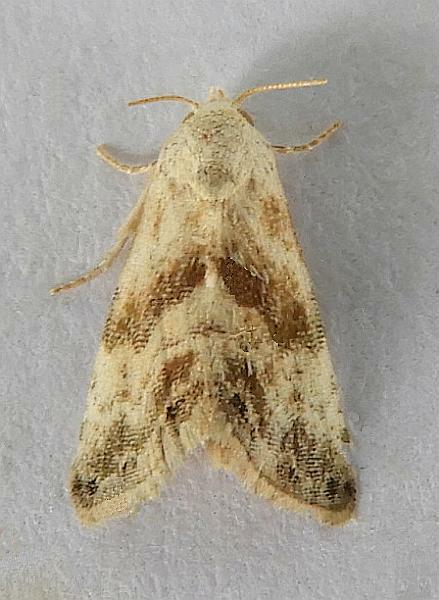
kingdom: Animalia
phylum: Arthropoda
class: Insecta
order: Lepidoptera
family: Noctuidae
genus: Eublemma
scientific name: Eublemma minima
